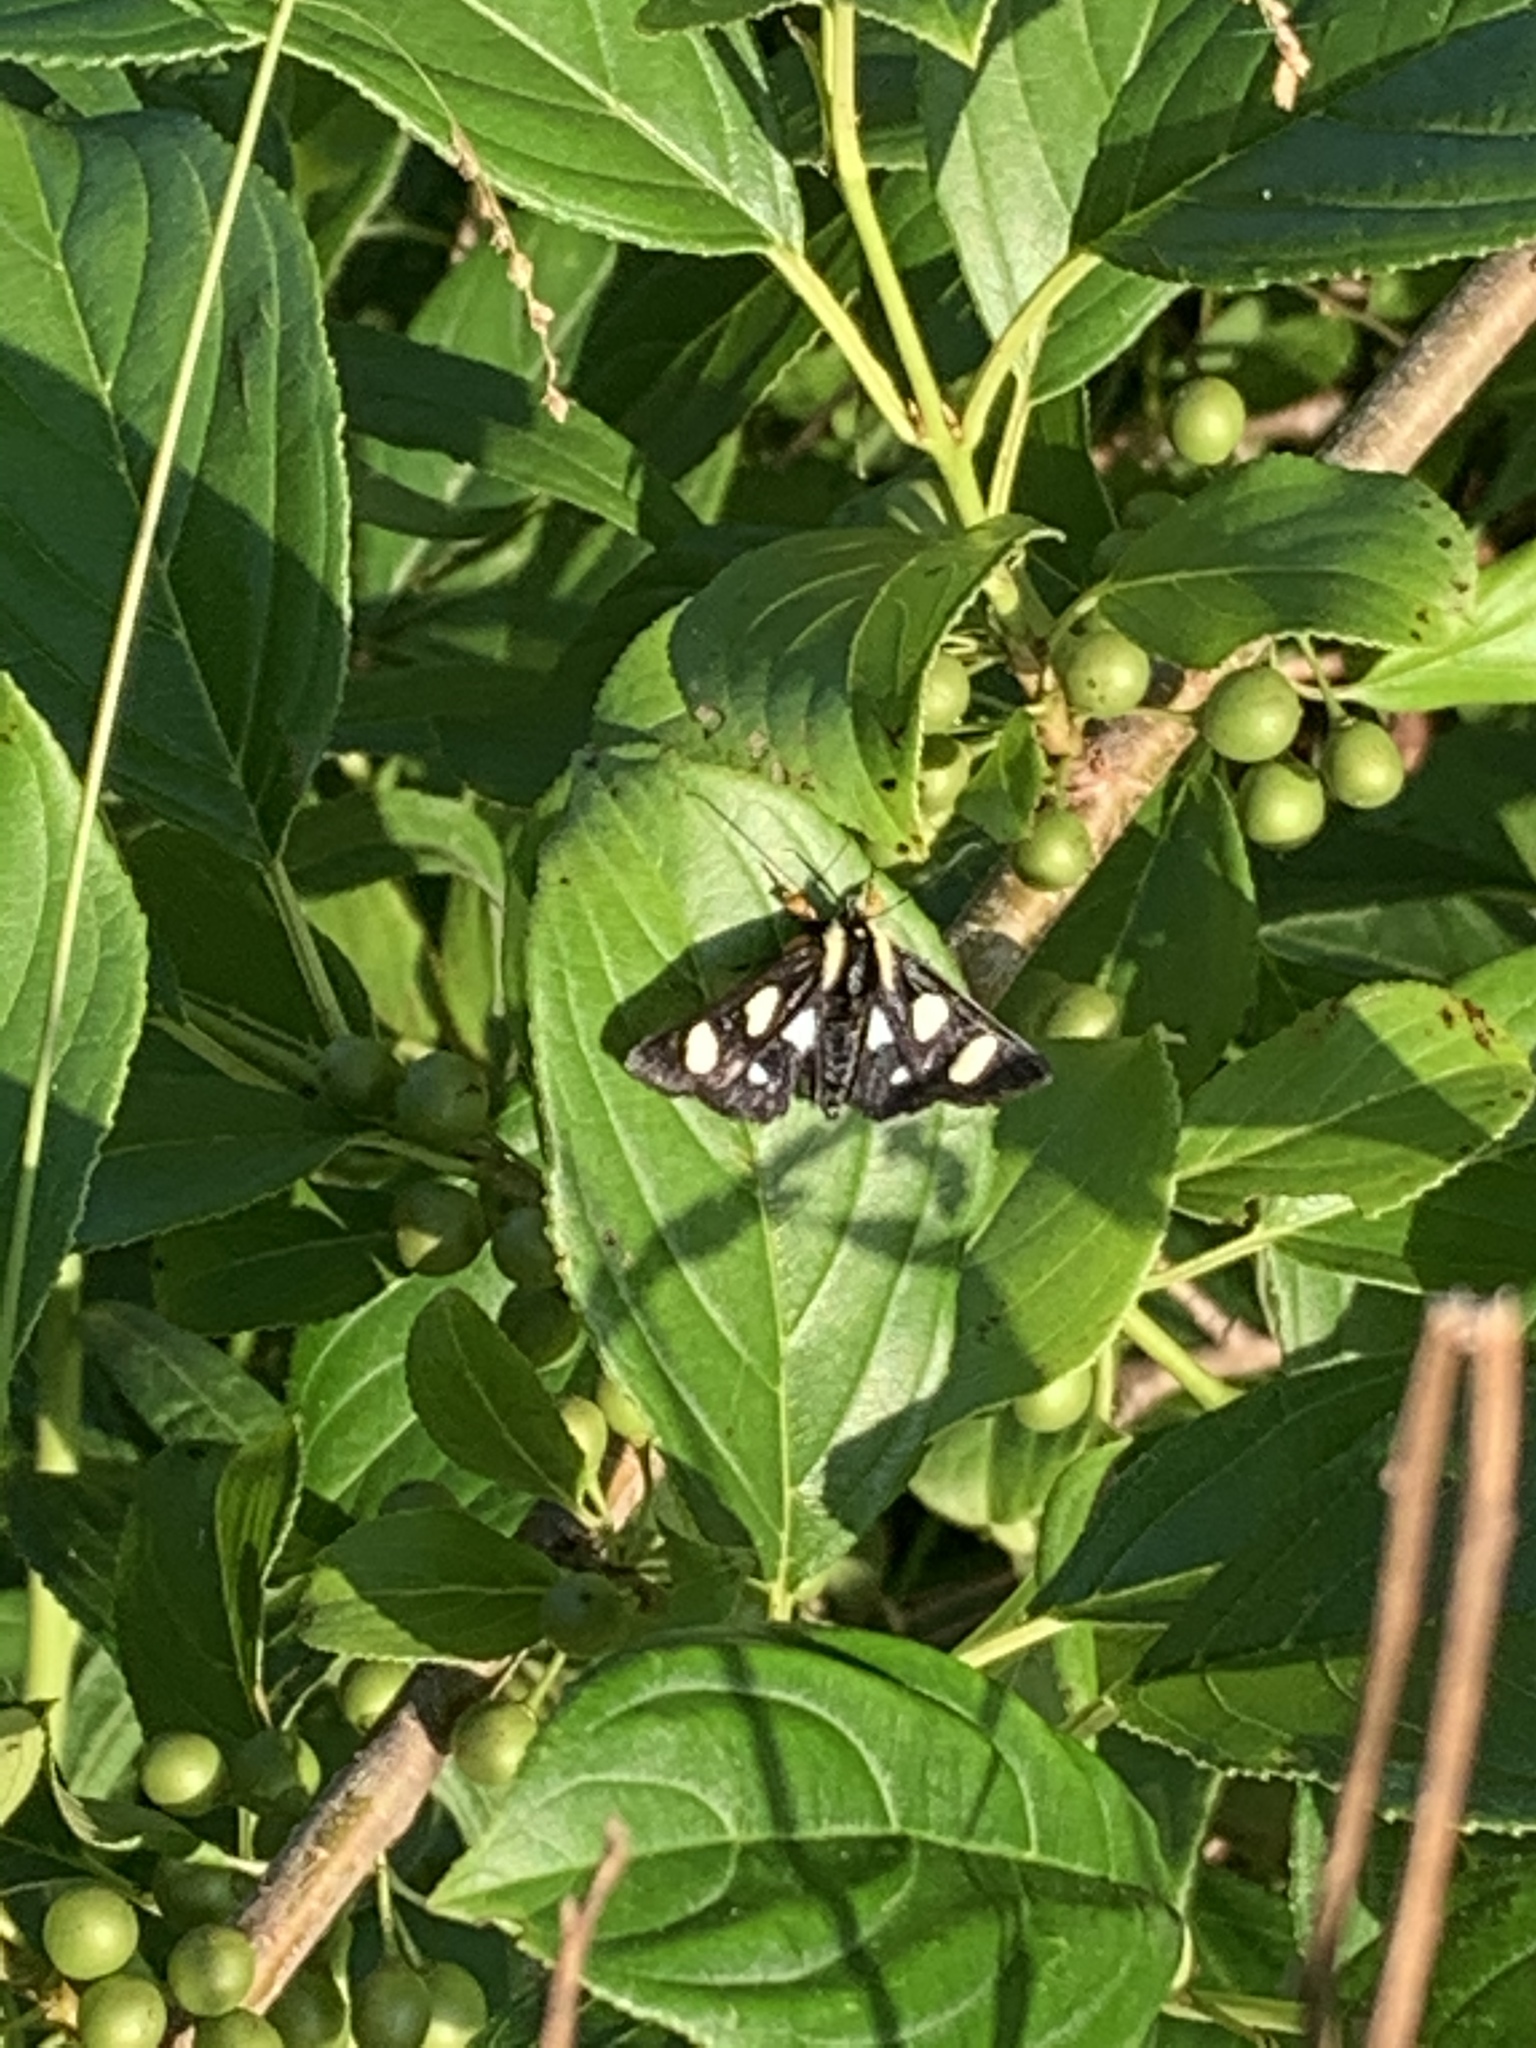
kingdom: Animalia
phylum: Arthropoda
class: Insecta
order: Lepidoptera
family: Noctuidae
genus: Alypia
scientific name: Alypia octomaculata
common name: Eight-spotted forester
